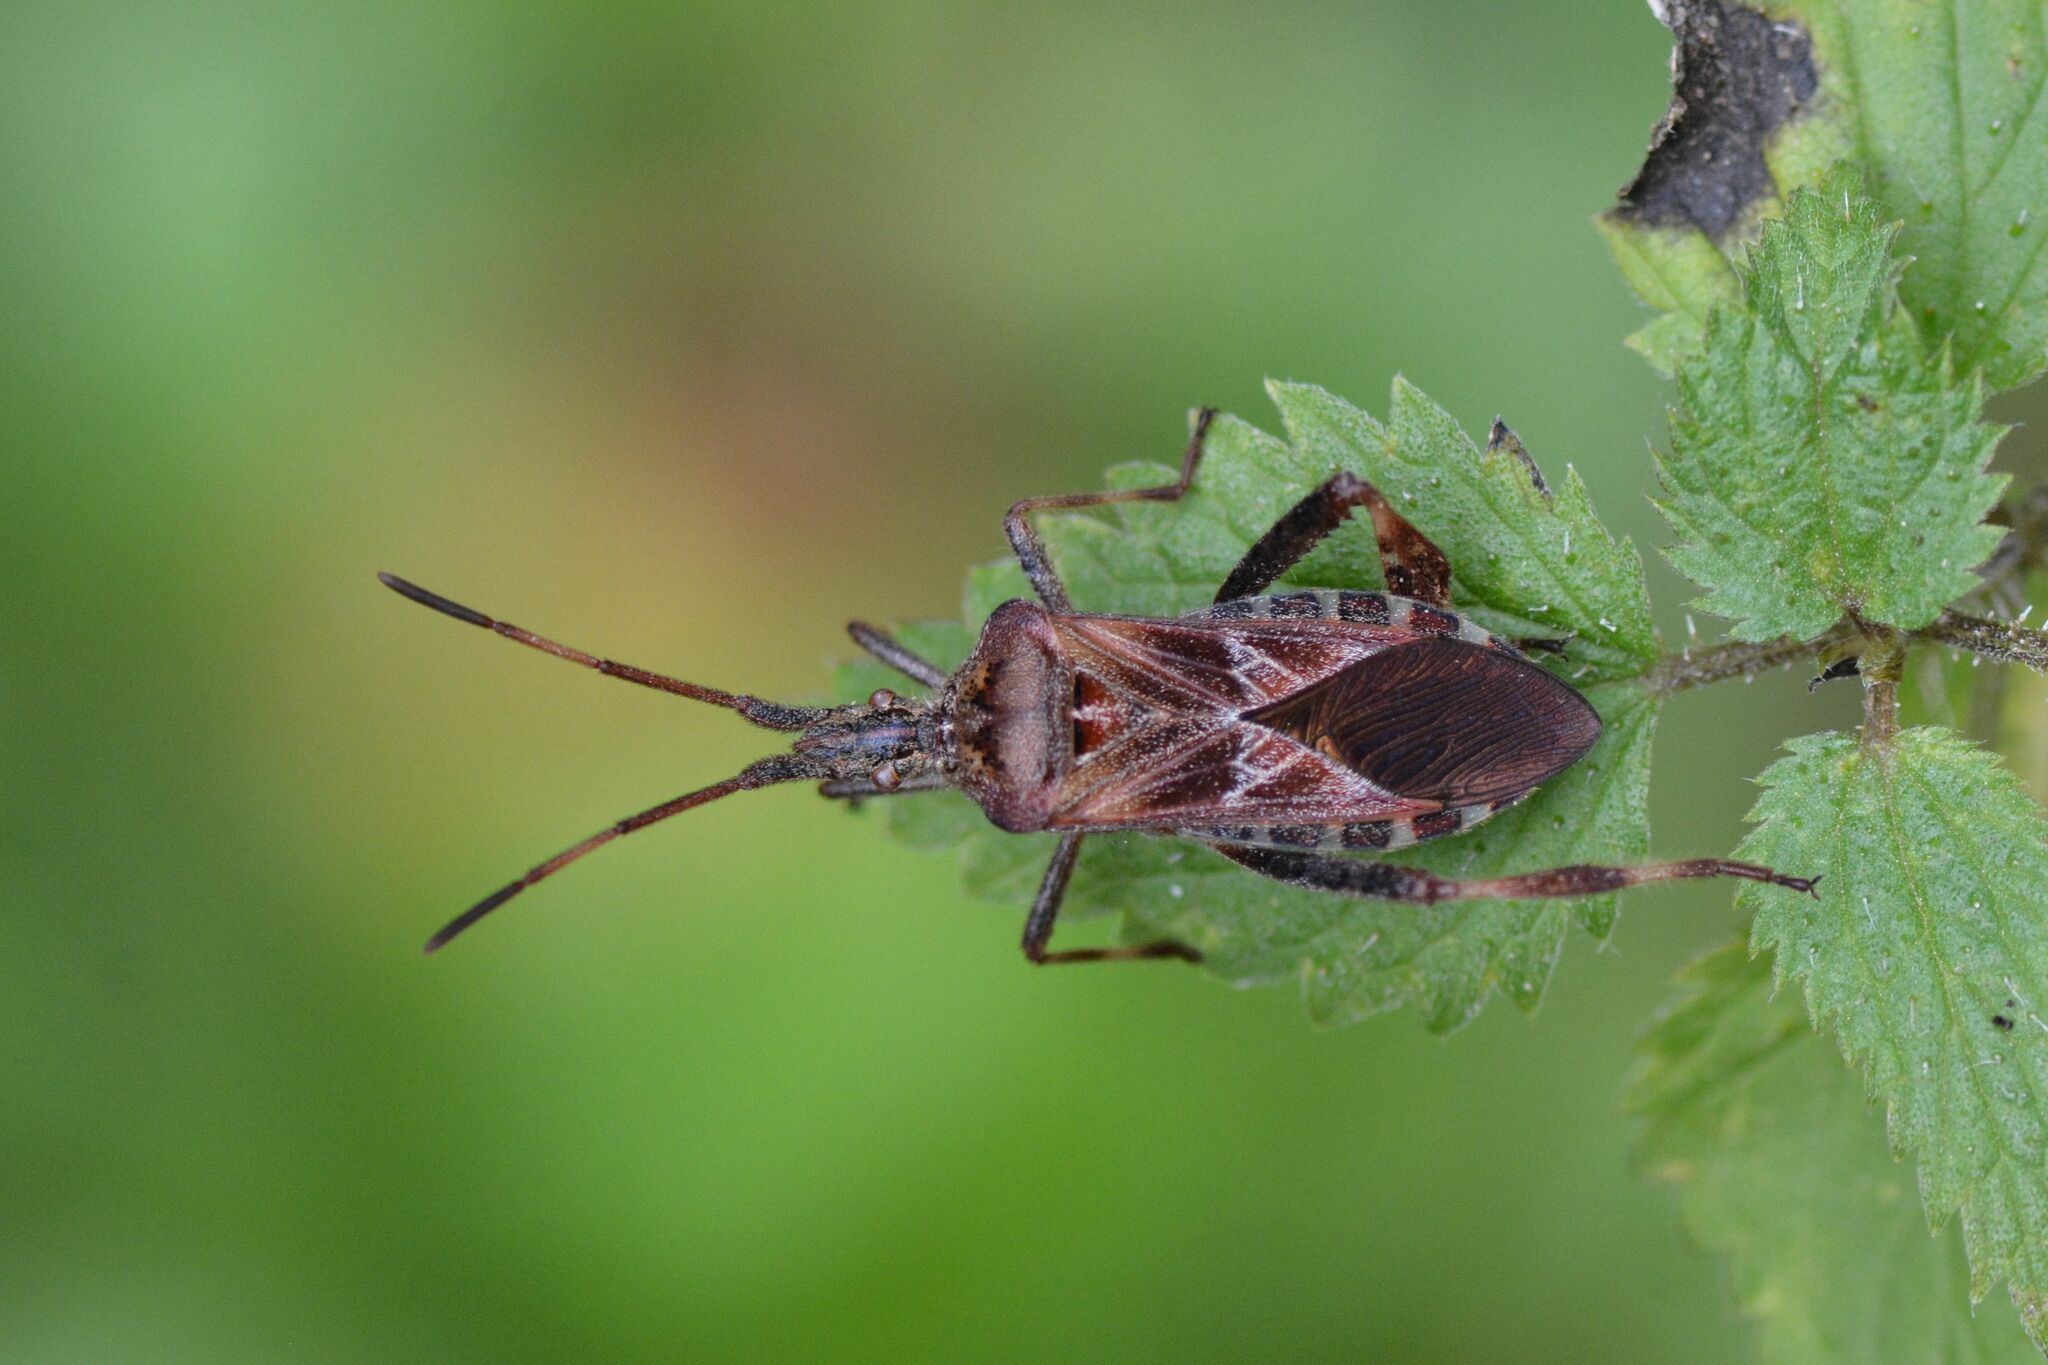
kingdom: Animalia
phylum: Arthropoda
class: Insecta
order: Hemiptera
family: Coreidae
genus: Leptoglossus
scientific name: Leptoglossus occidentalis
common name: Western conifer-seed bug
